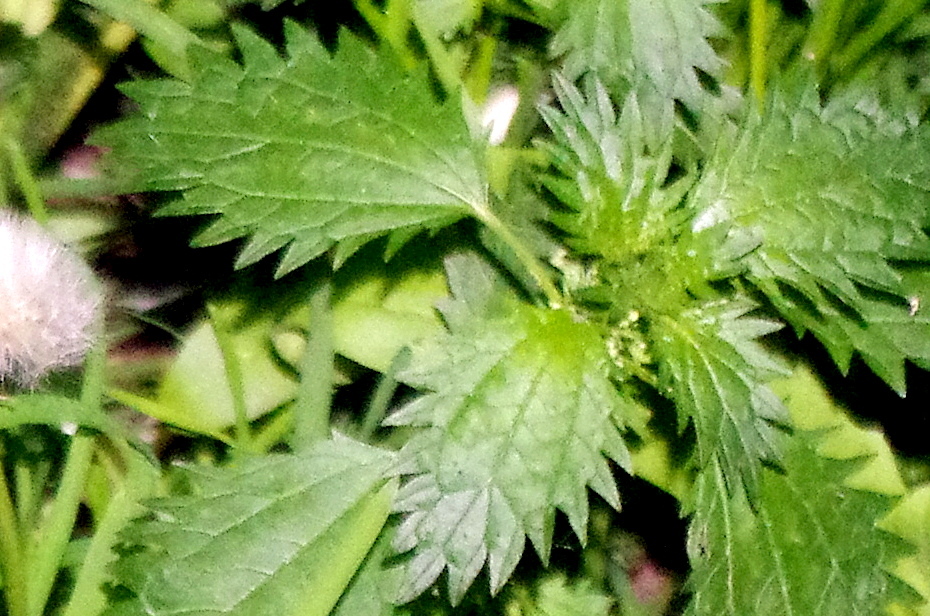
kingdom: Plantae
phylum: Tracheophyta
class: Magnoliopsida
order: Rosales
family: Urticaceae
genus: Urtica
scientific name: Urtica urens
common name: Dwarf nettle
